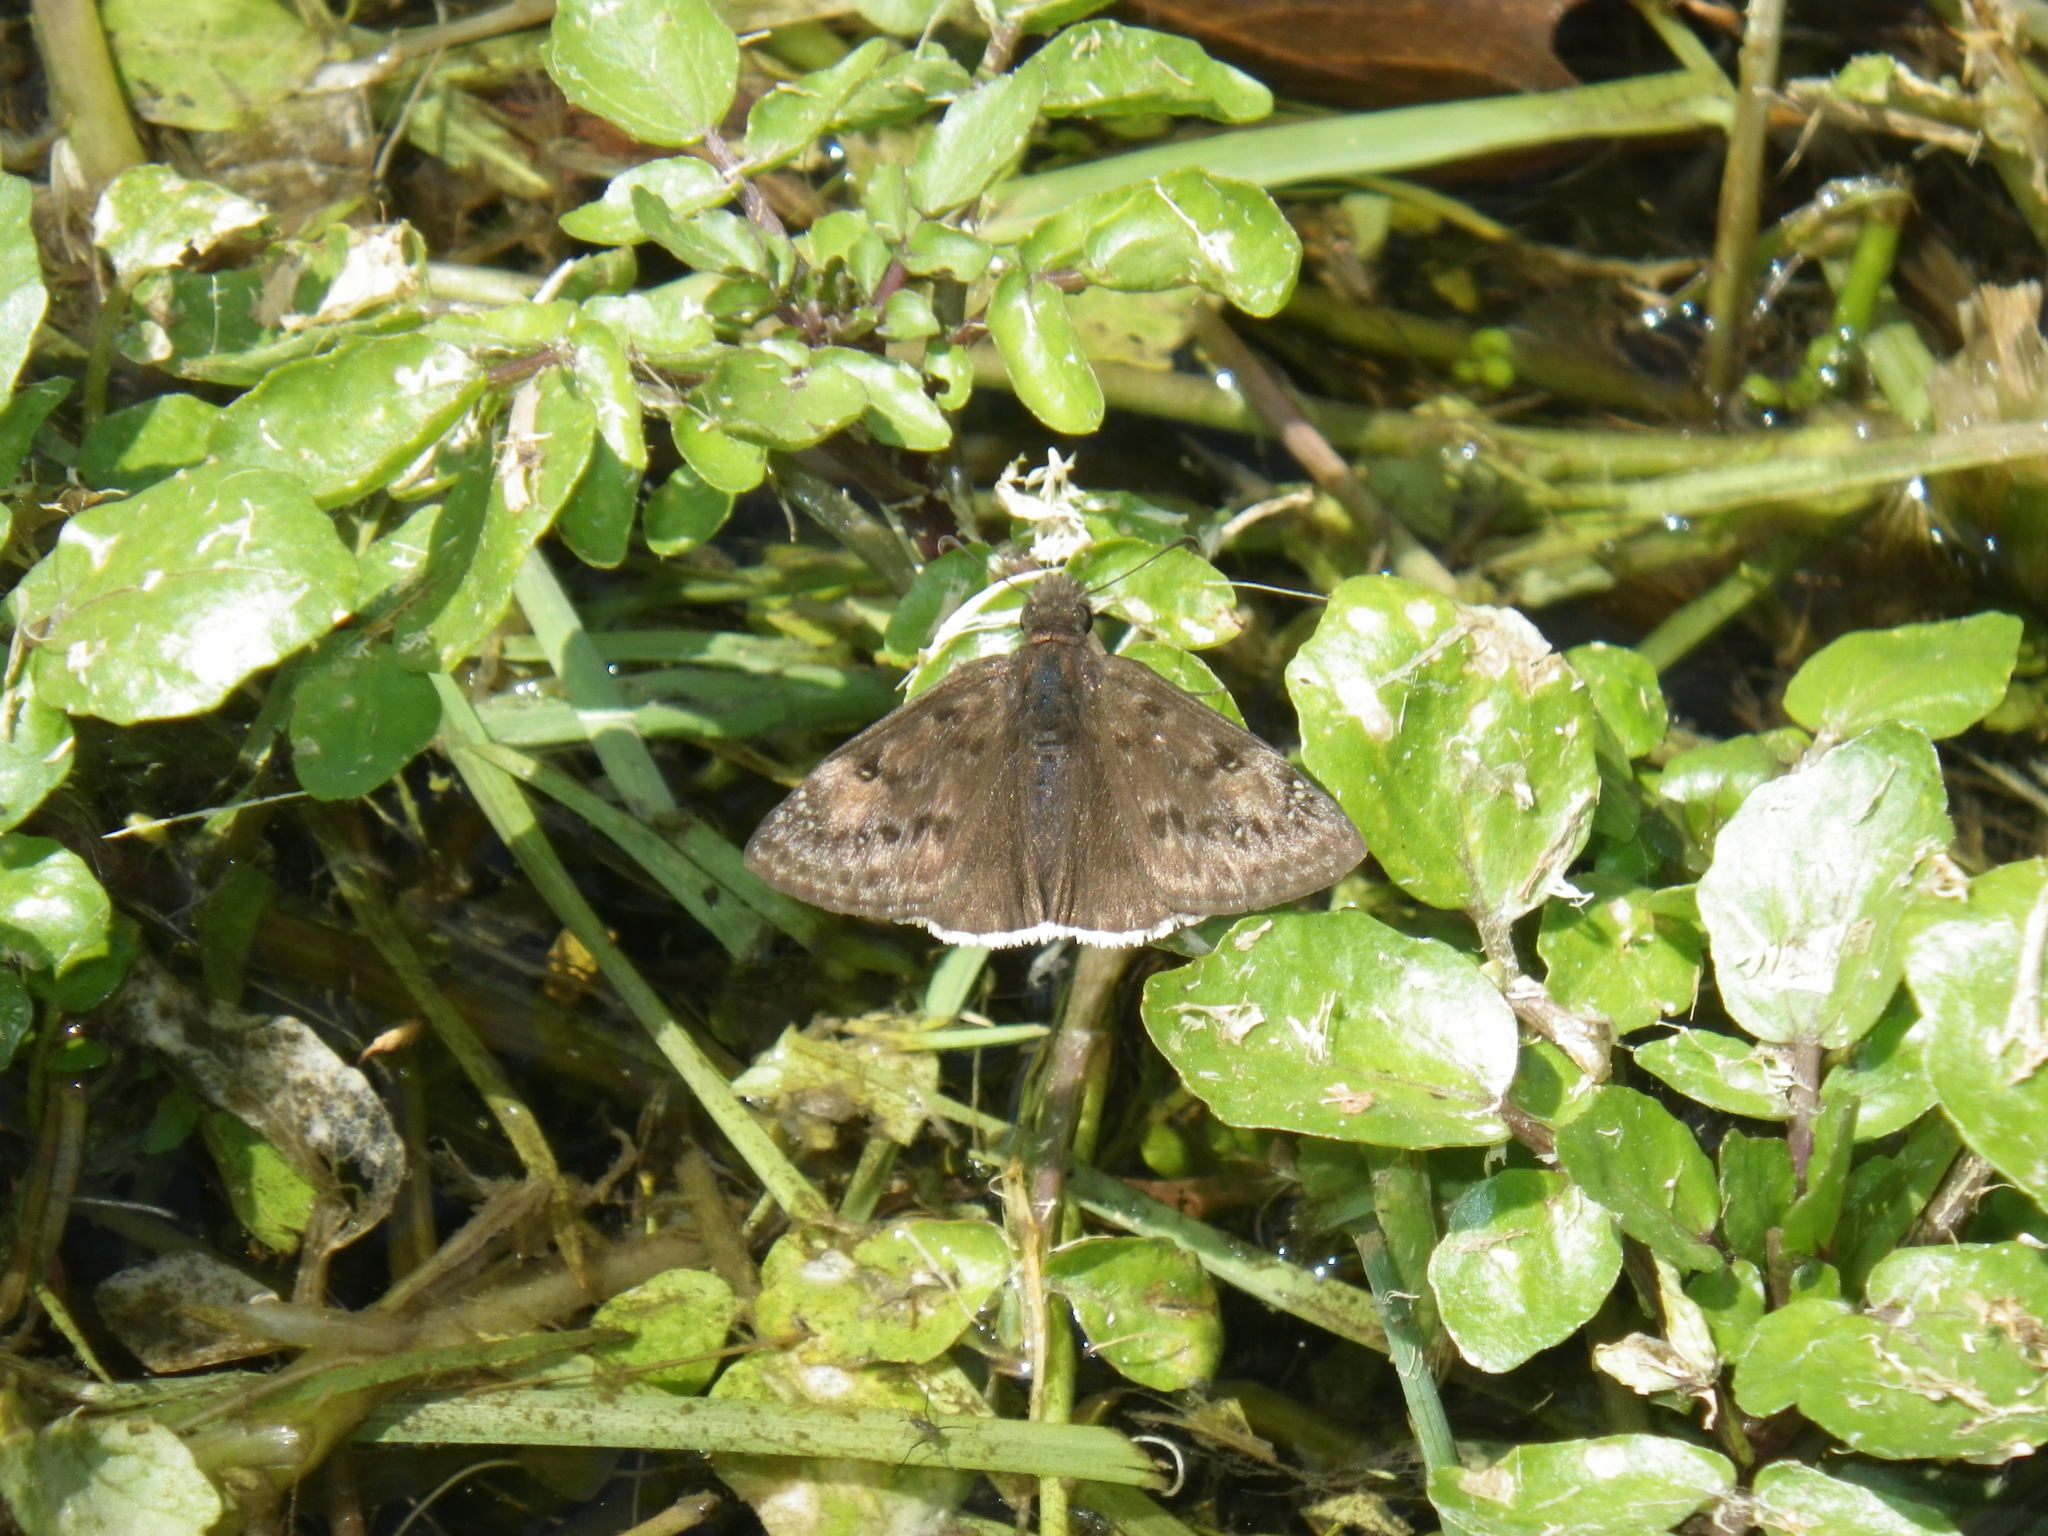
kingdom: Animalia
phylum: Arthropoda
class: Insecta
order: Lepidoptera
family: Hesperiidae
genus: Erynnis
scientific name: Erynnis funeralis
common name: Funereal duskywing
